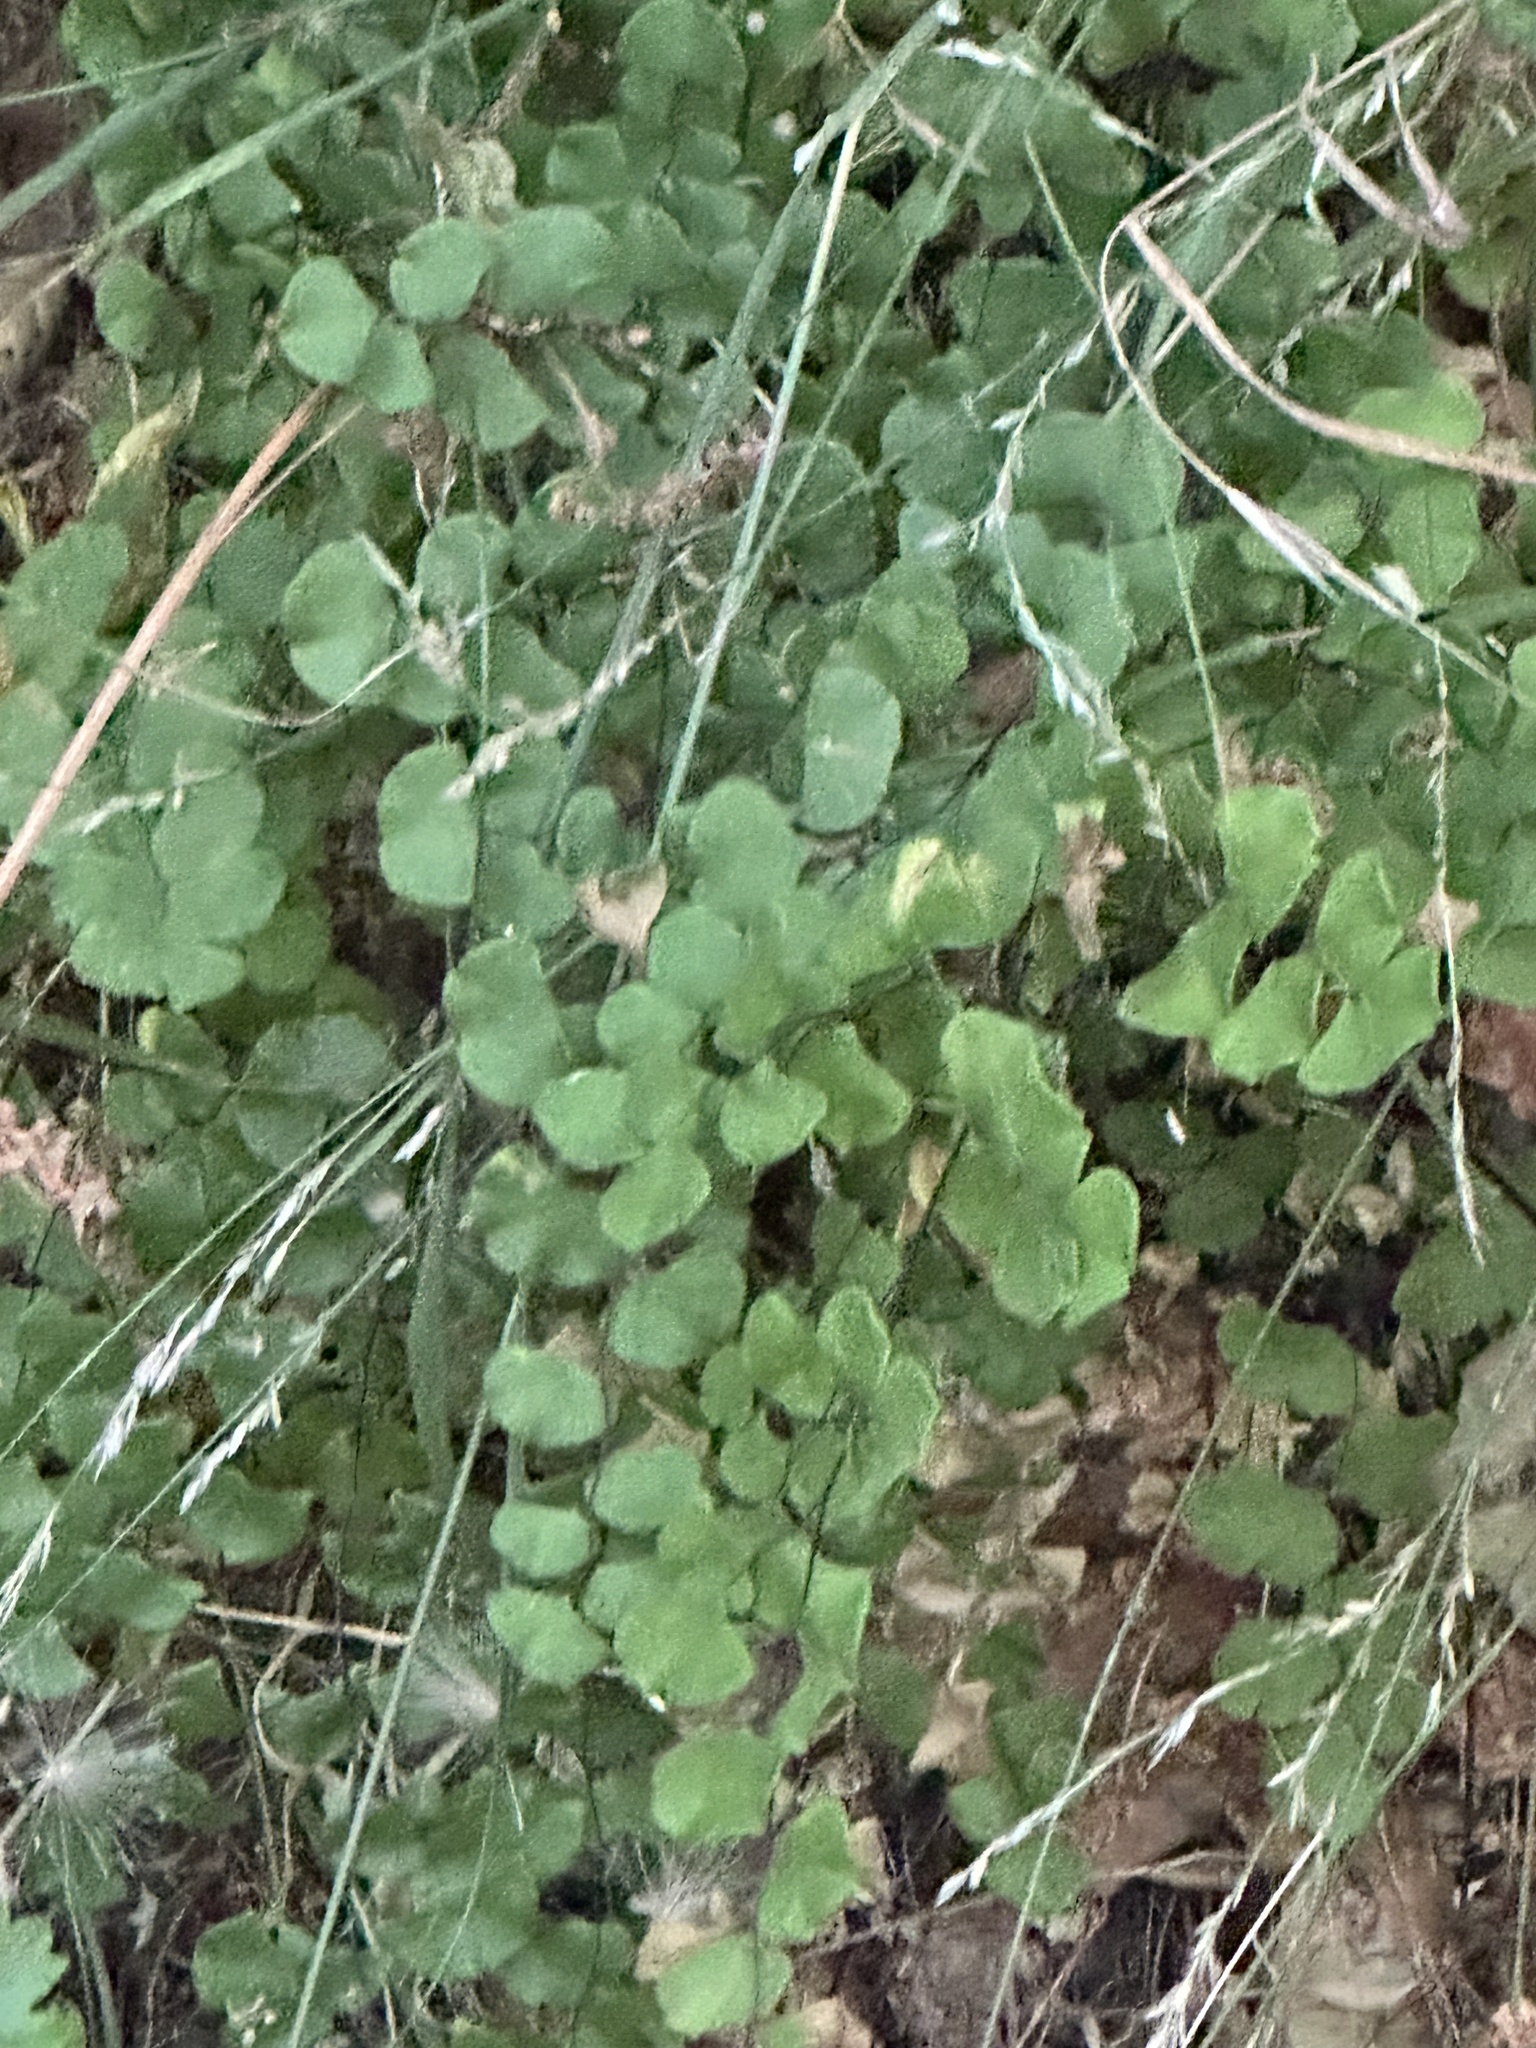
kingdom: Plantae
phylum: Tracheophyta
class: Polypodiopsida
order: Polypodiales
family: Pteridaceae
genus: Adiantum
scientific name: Adiantum jordanii
